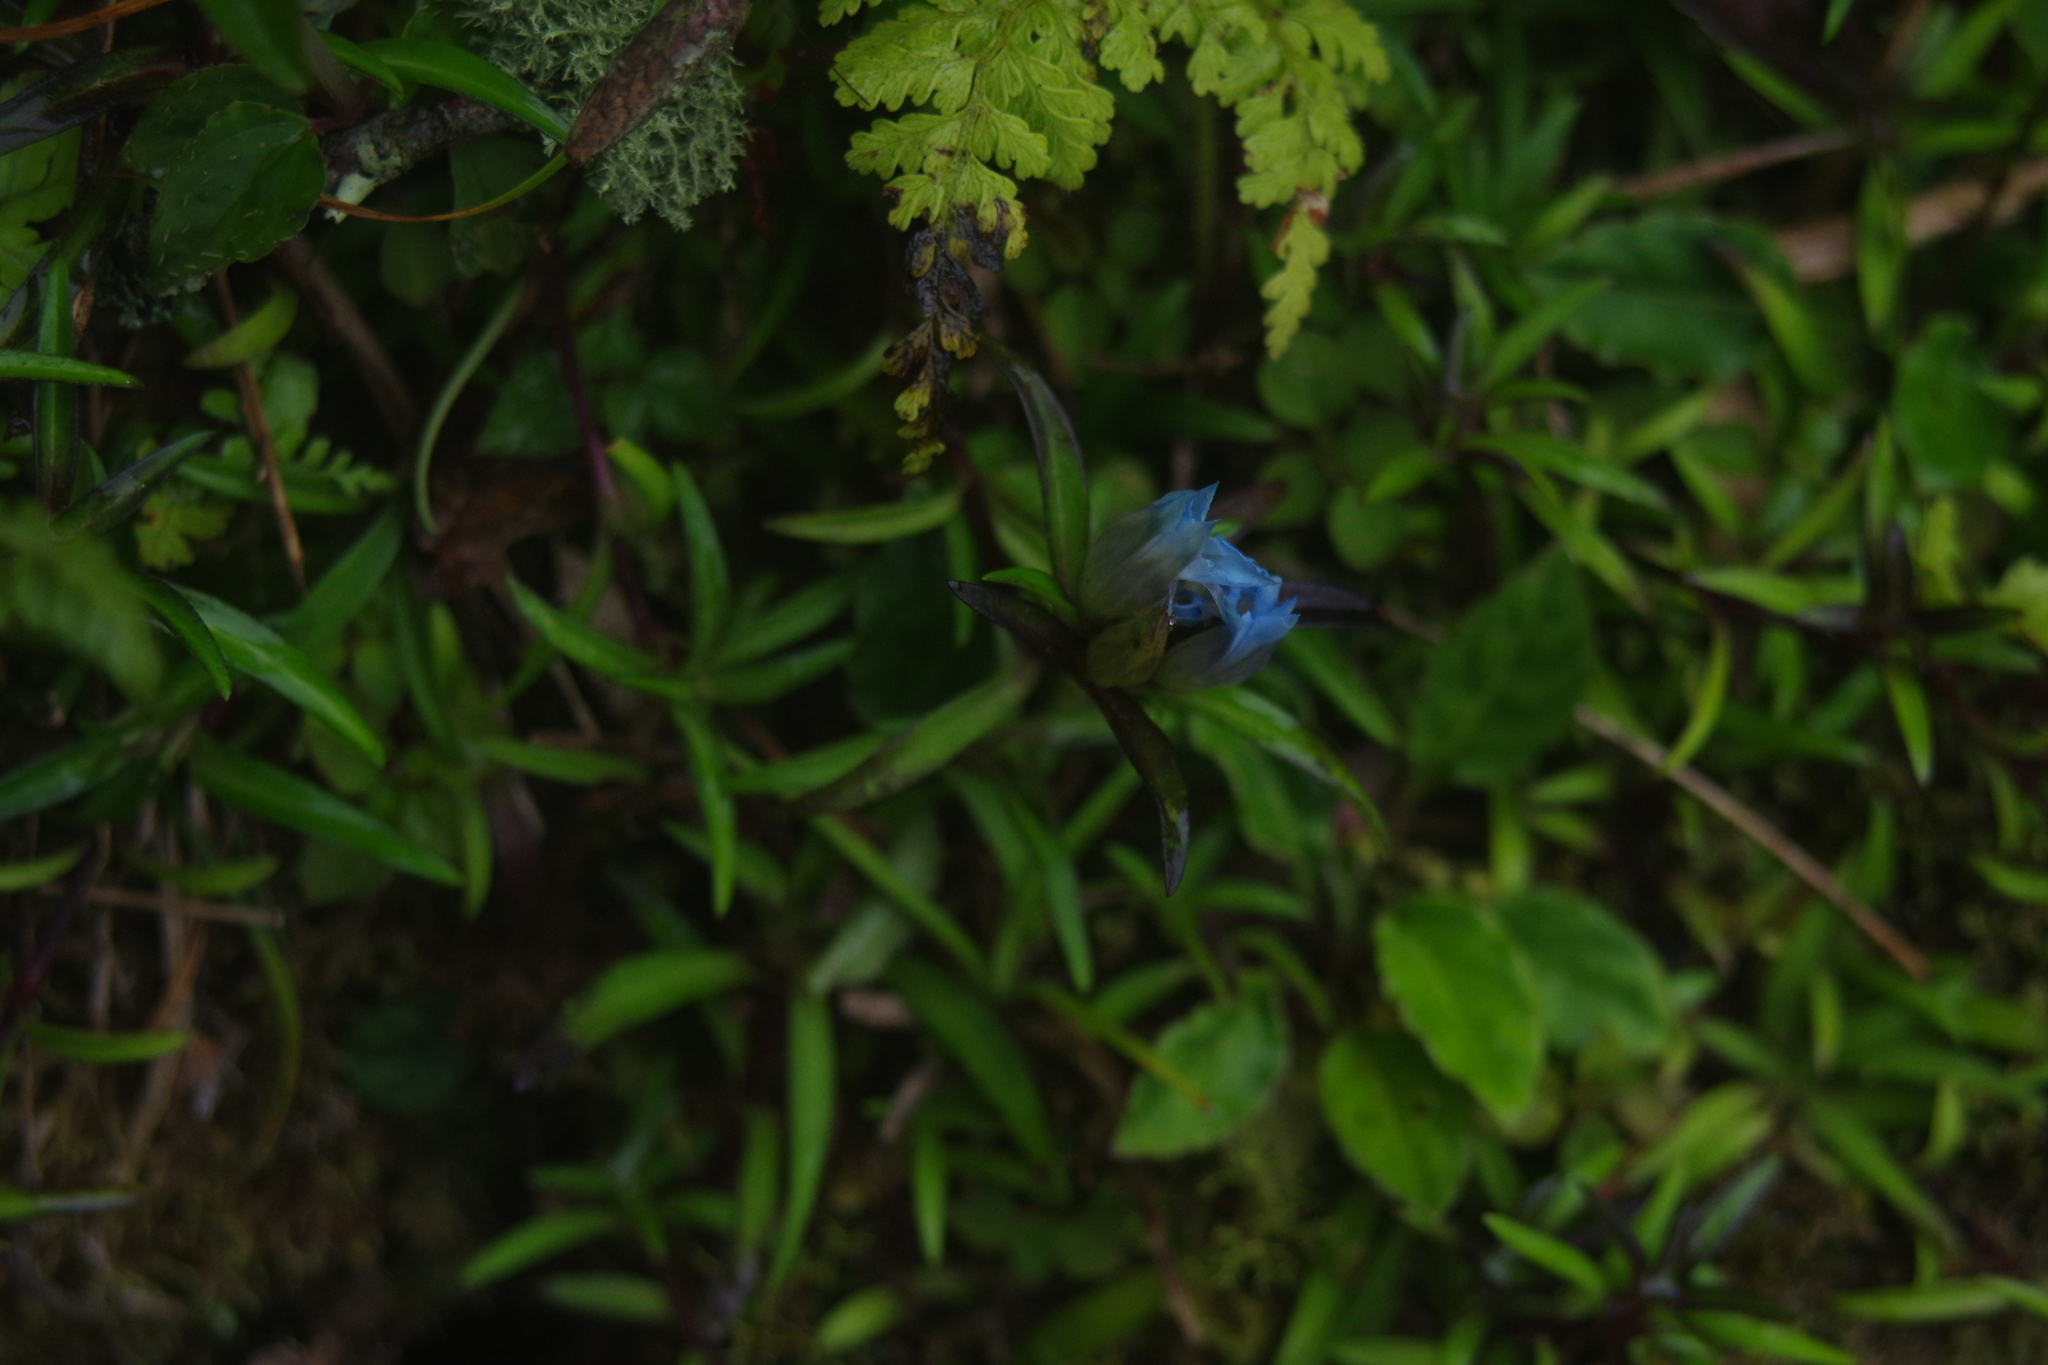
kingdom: Plantae
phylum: Tracheophyta
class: Magnoliopsida
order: Gentianales
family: Gentianaceae
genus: Gentiana
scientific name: Gentiana davidii
